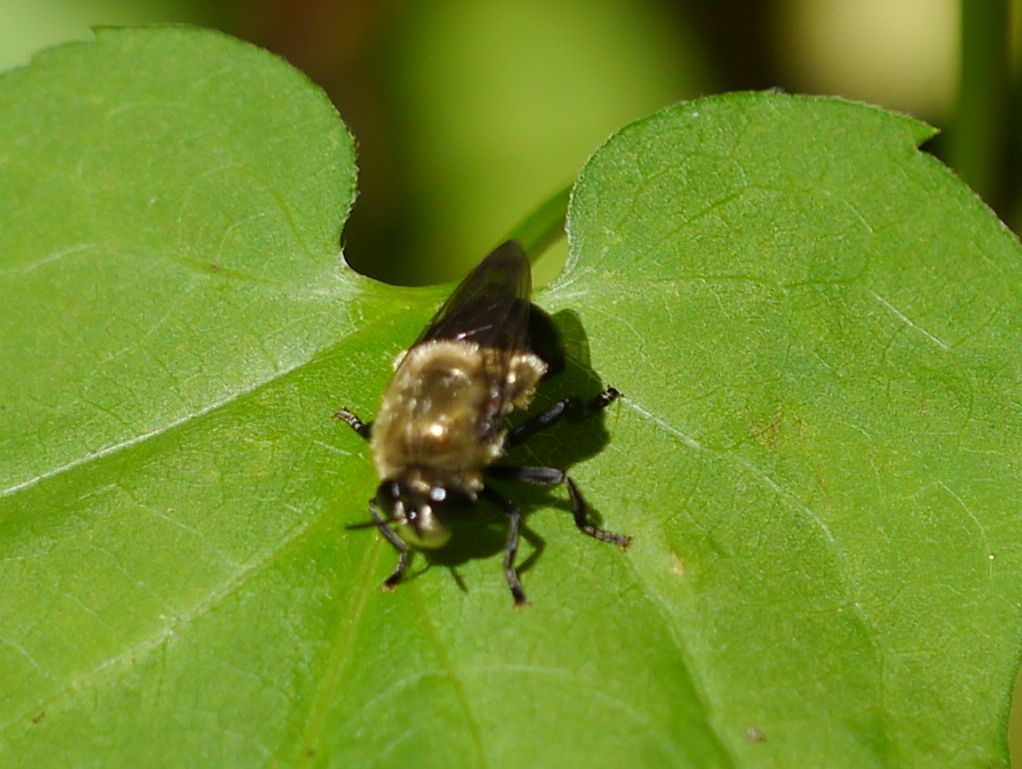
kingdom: Animalia
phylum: Arthropoda
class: Insecta
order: Diptera
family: Syrphidae
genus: Microdon
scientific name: Microdon megalogaster
